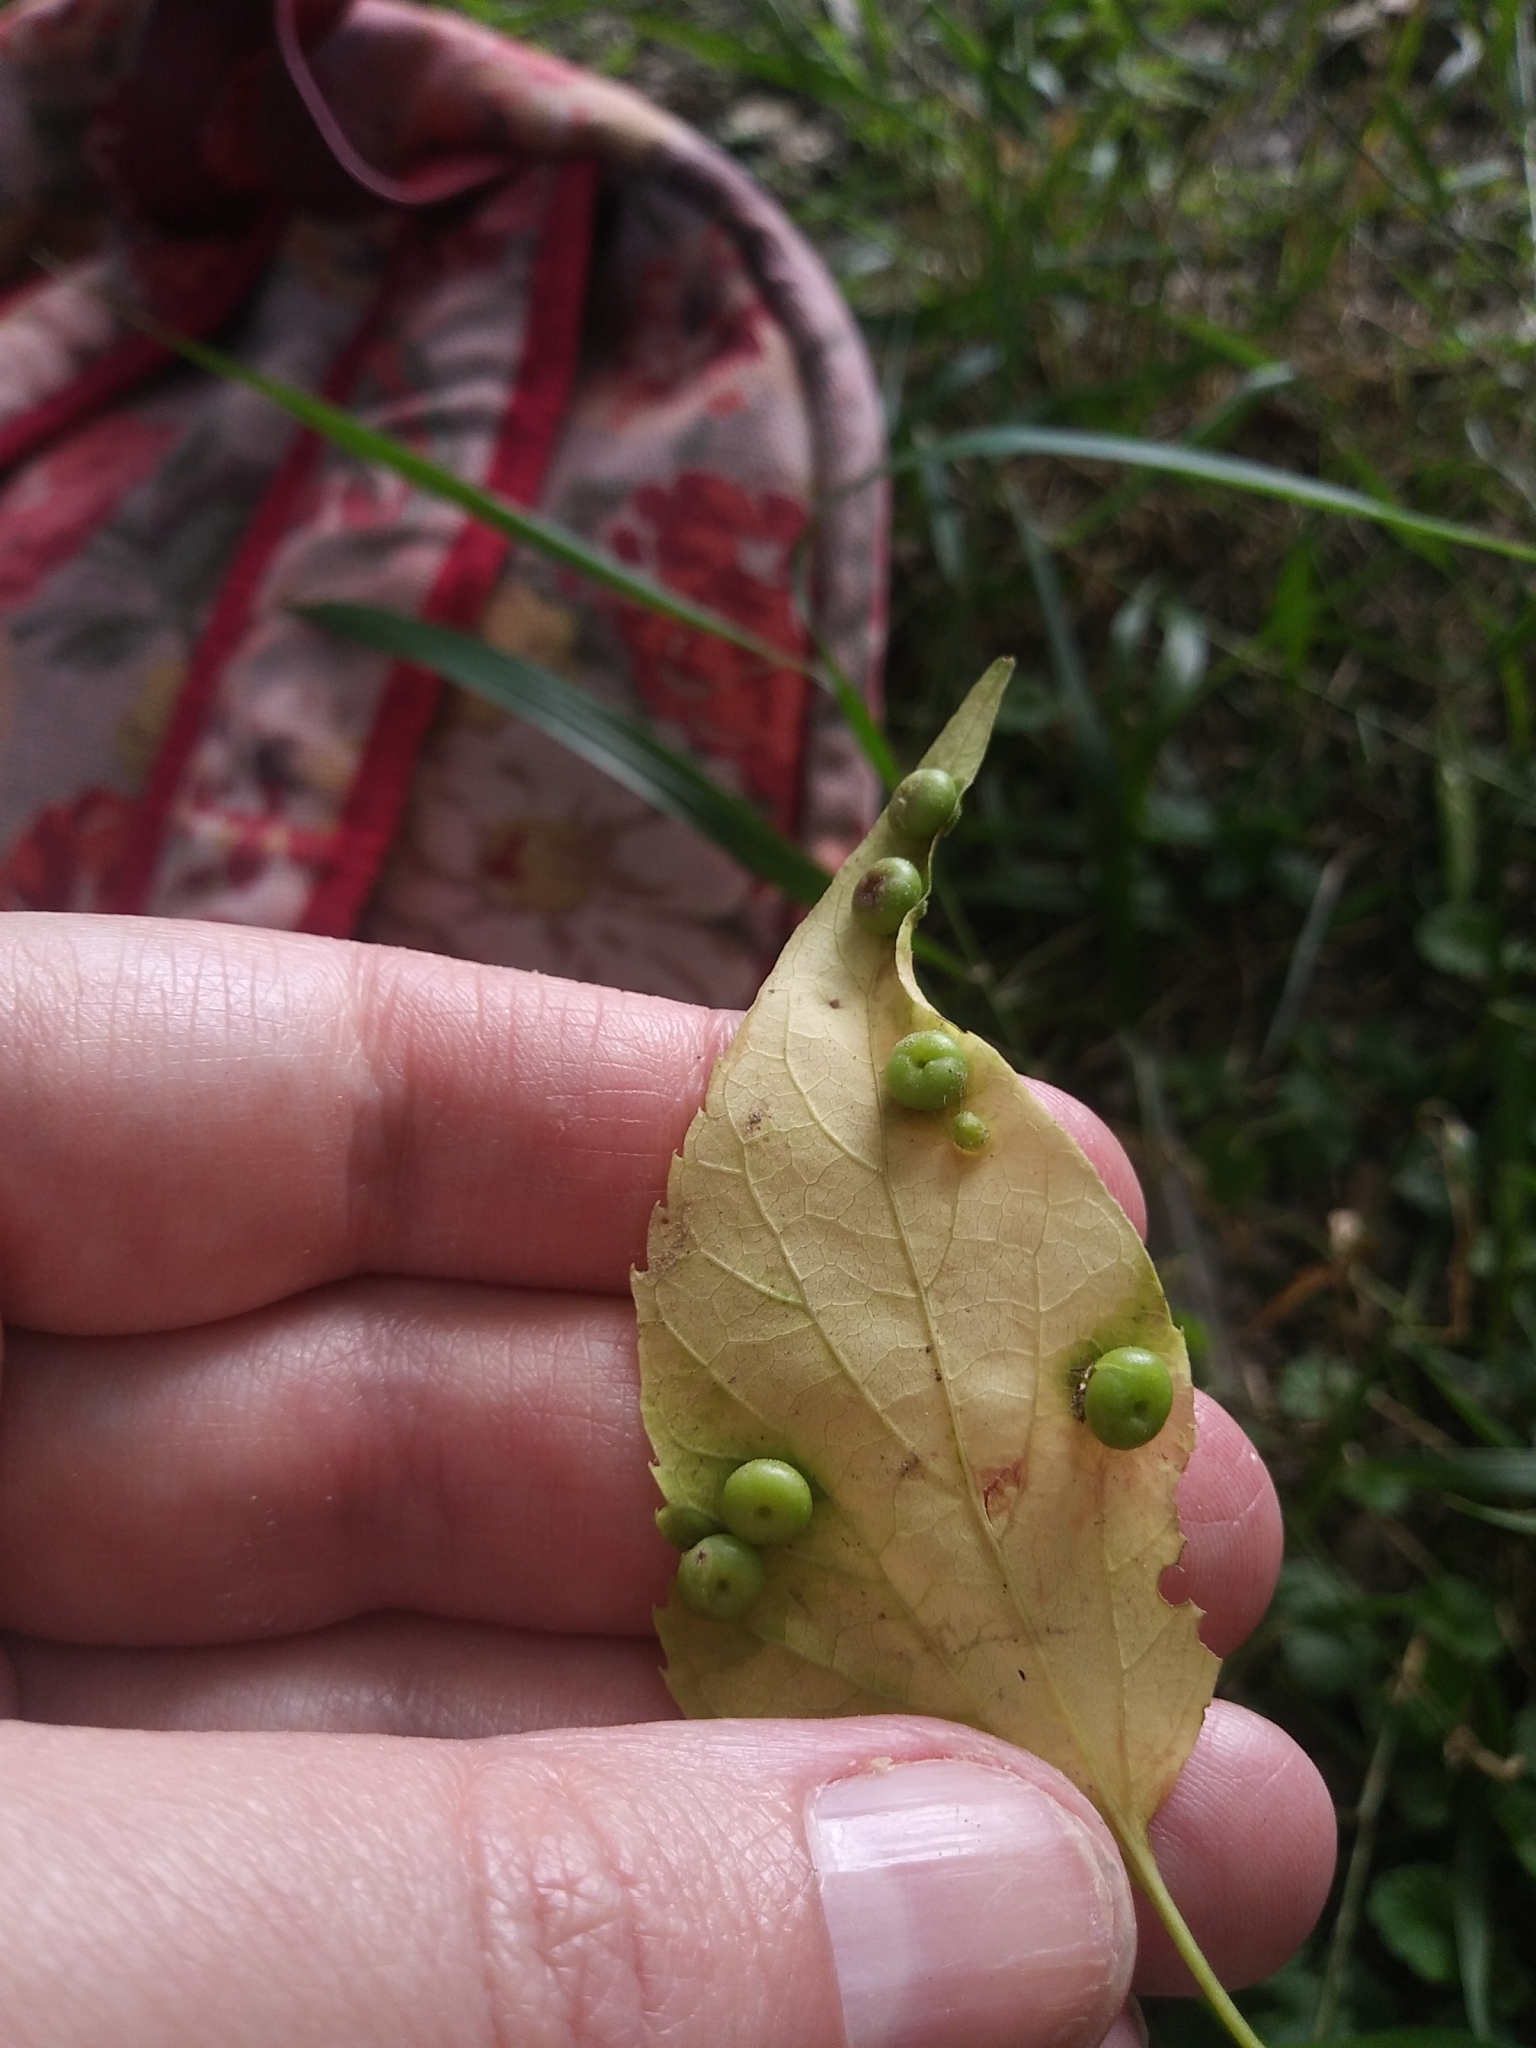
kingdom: Animalia
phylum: Arthropoda
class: Insecta
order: Hemiptera
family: Aphalaridae
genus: Pachypsylla
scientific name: Pachypsylla celtidismamma
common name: Hackberry nipplegall psyllid
